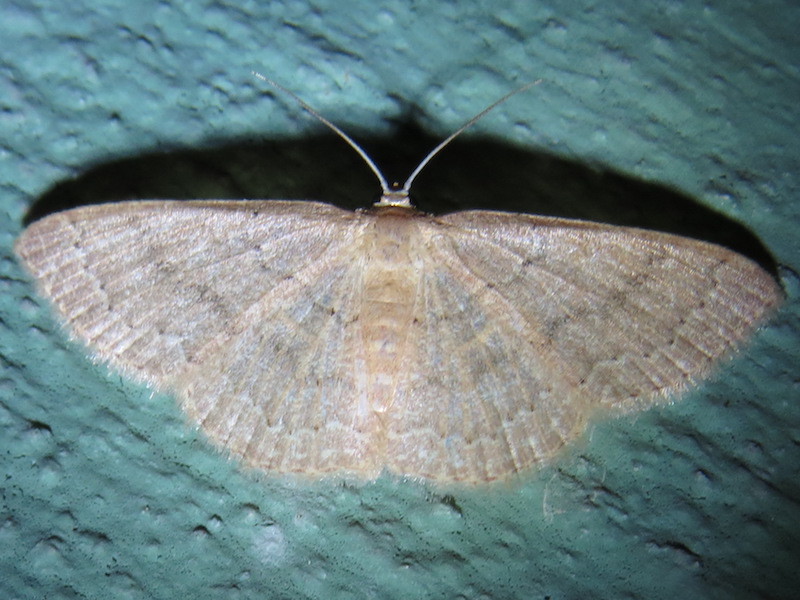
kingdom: Animalia
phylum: Arthropoda
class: Insecta
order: Lepidoptera
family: Geometridae
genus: Pleuroprucha
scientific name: Pleuroprucha insulsaria
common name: Common tan wave
